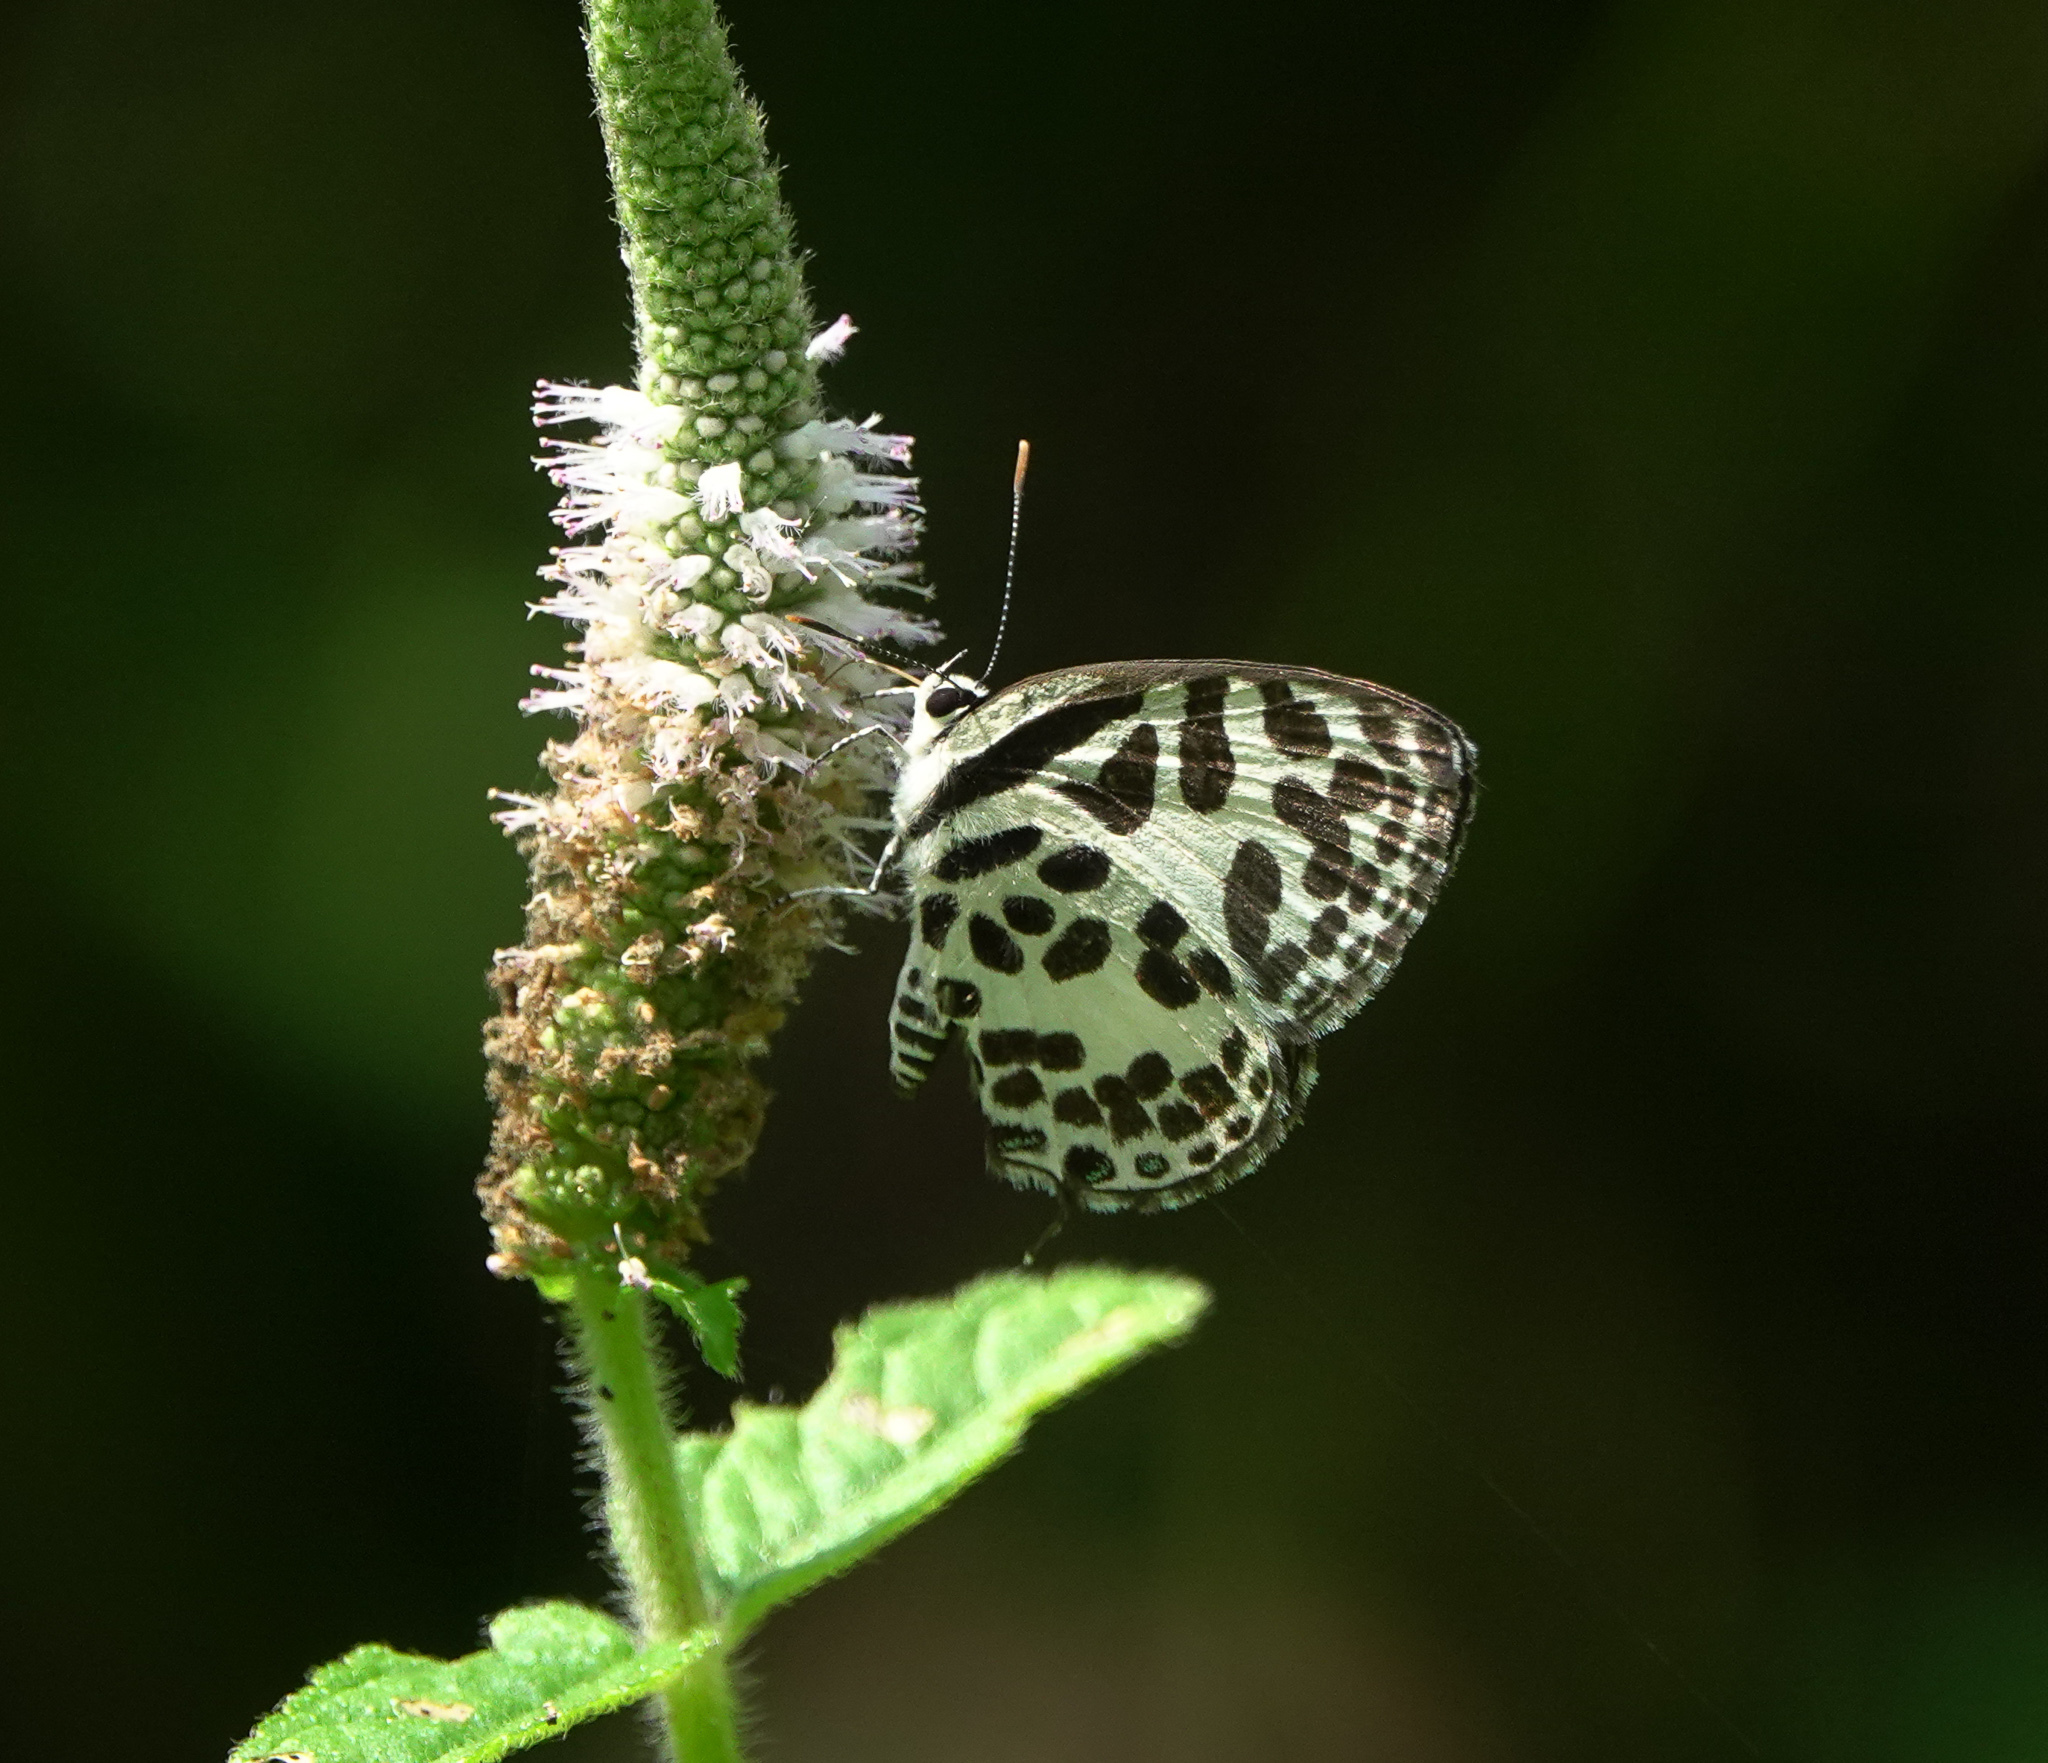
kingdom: Animalia
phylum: Arthropoda
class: Insecta
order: Lepidoptera
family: Lycaenidae
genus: Castalius
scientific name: Castalius rosimon
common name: Common pierrot
